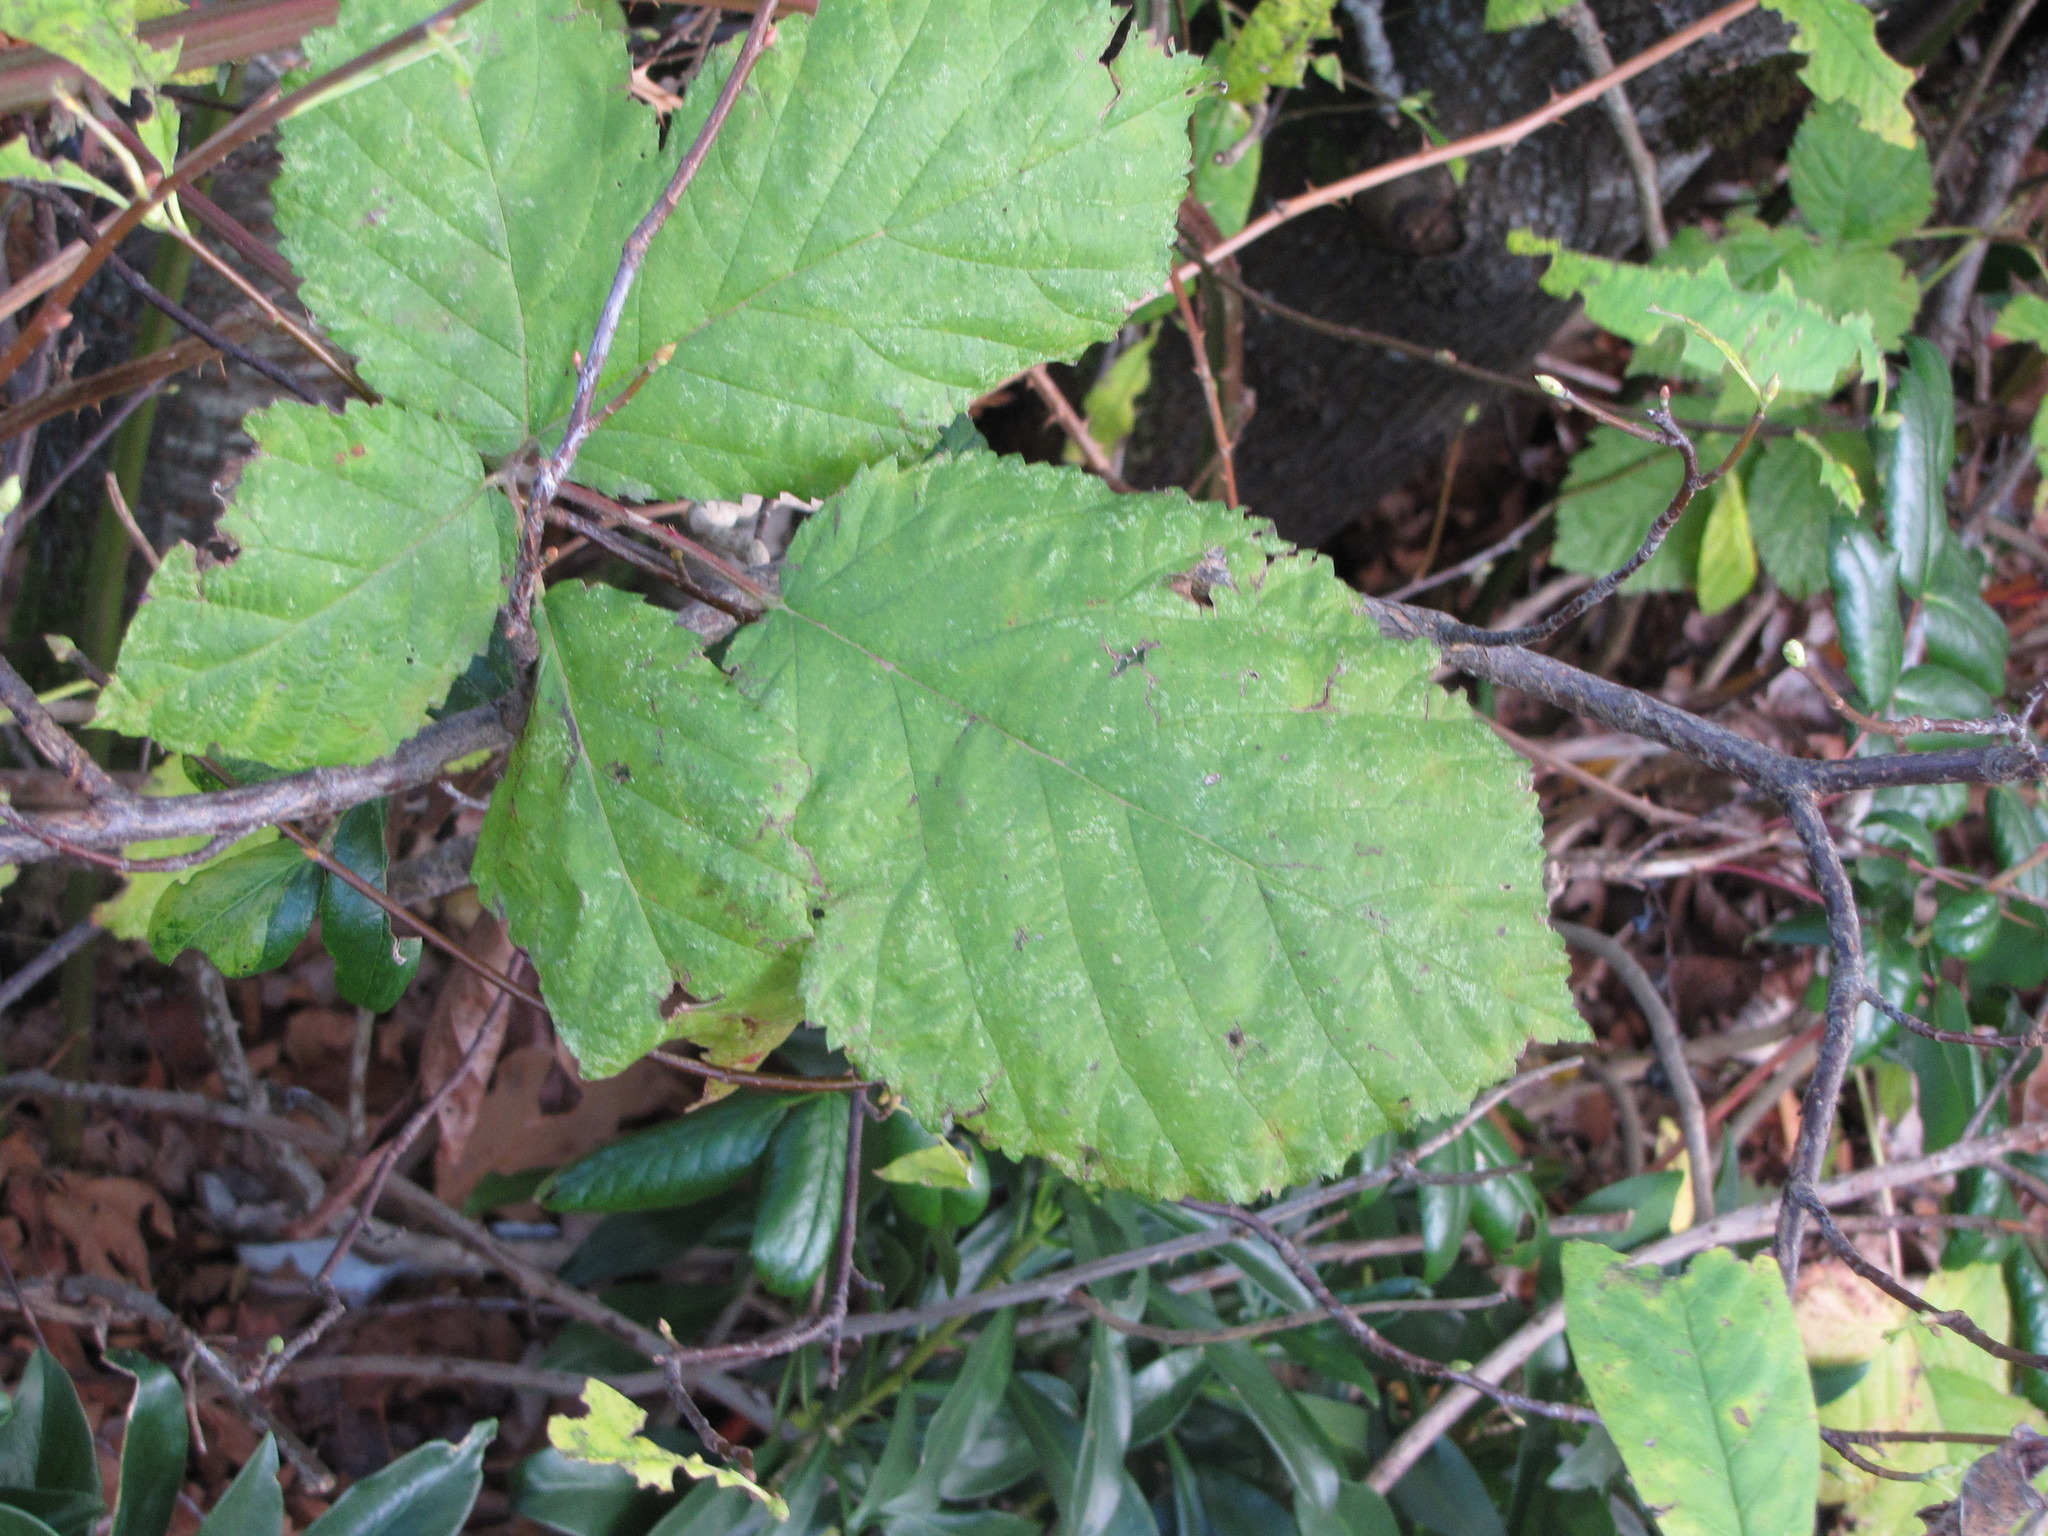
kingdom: Plantae
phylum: Tracheophyta
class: Magnoliopsida
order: Rosales
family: Rosaceae
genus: Rubus
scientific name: Rubus armeniacus
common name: Himalayan blackberry
